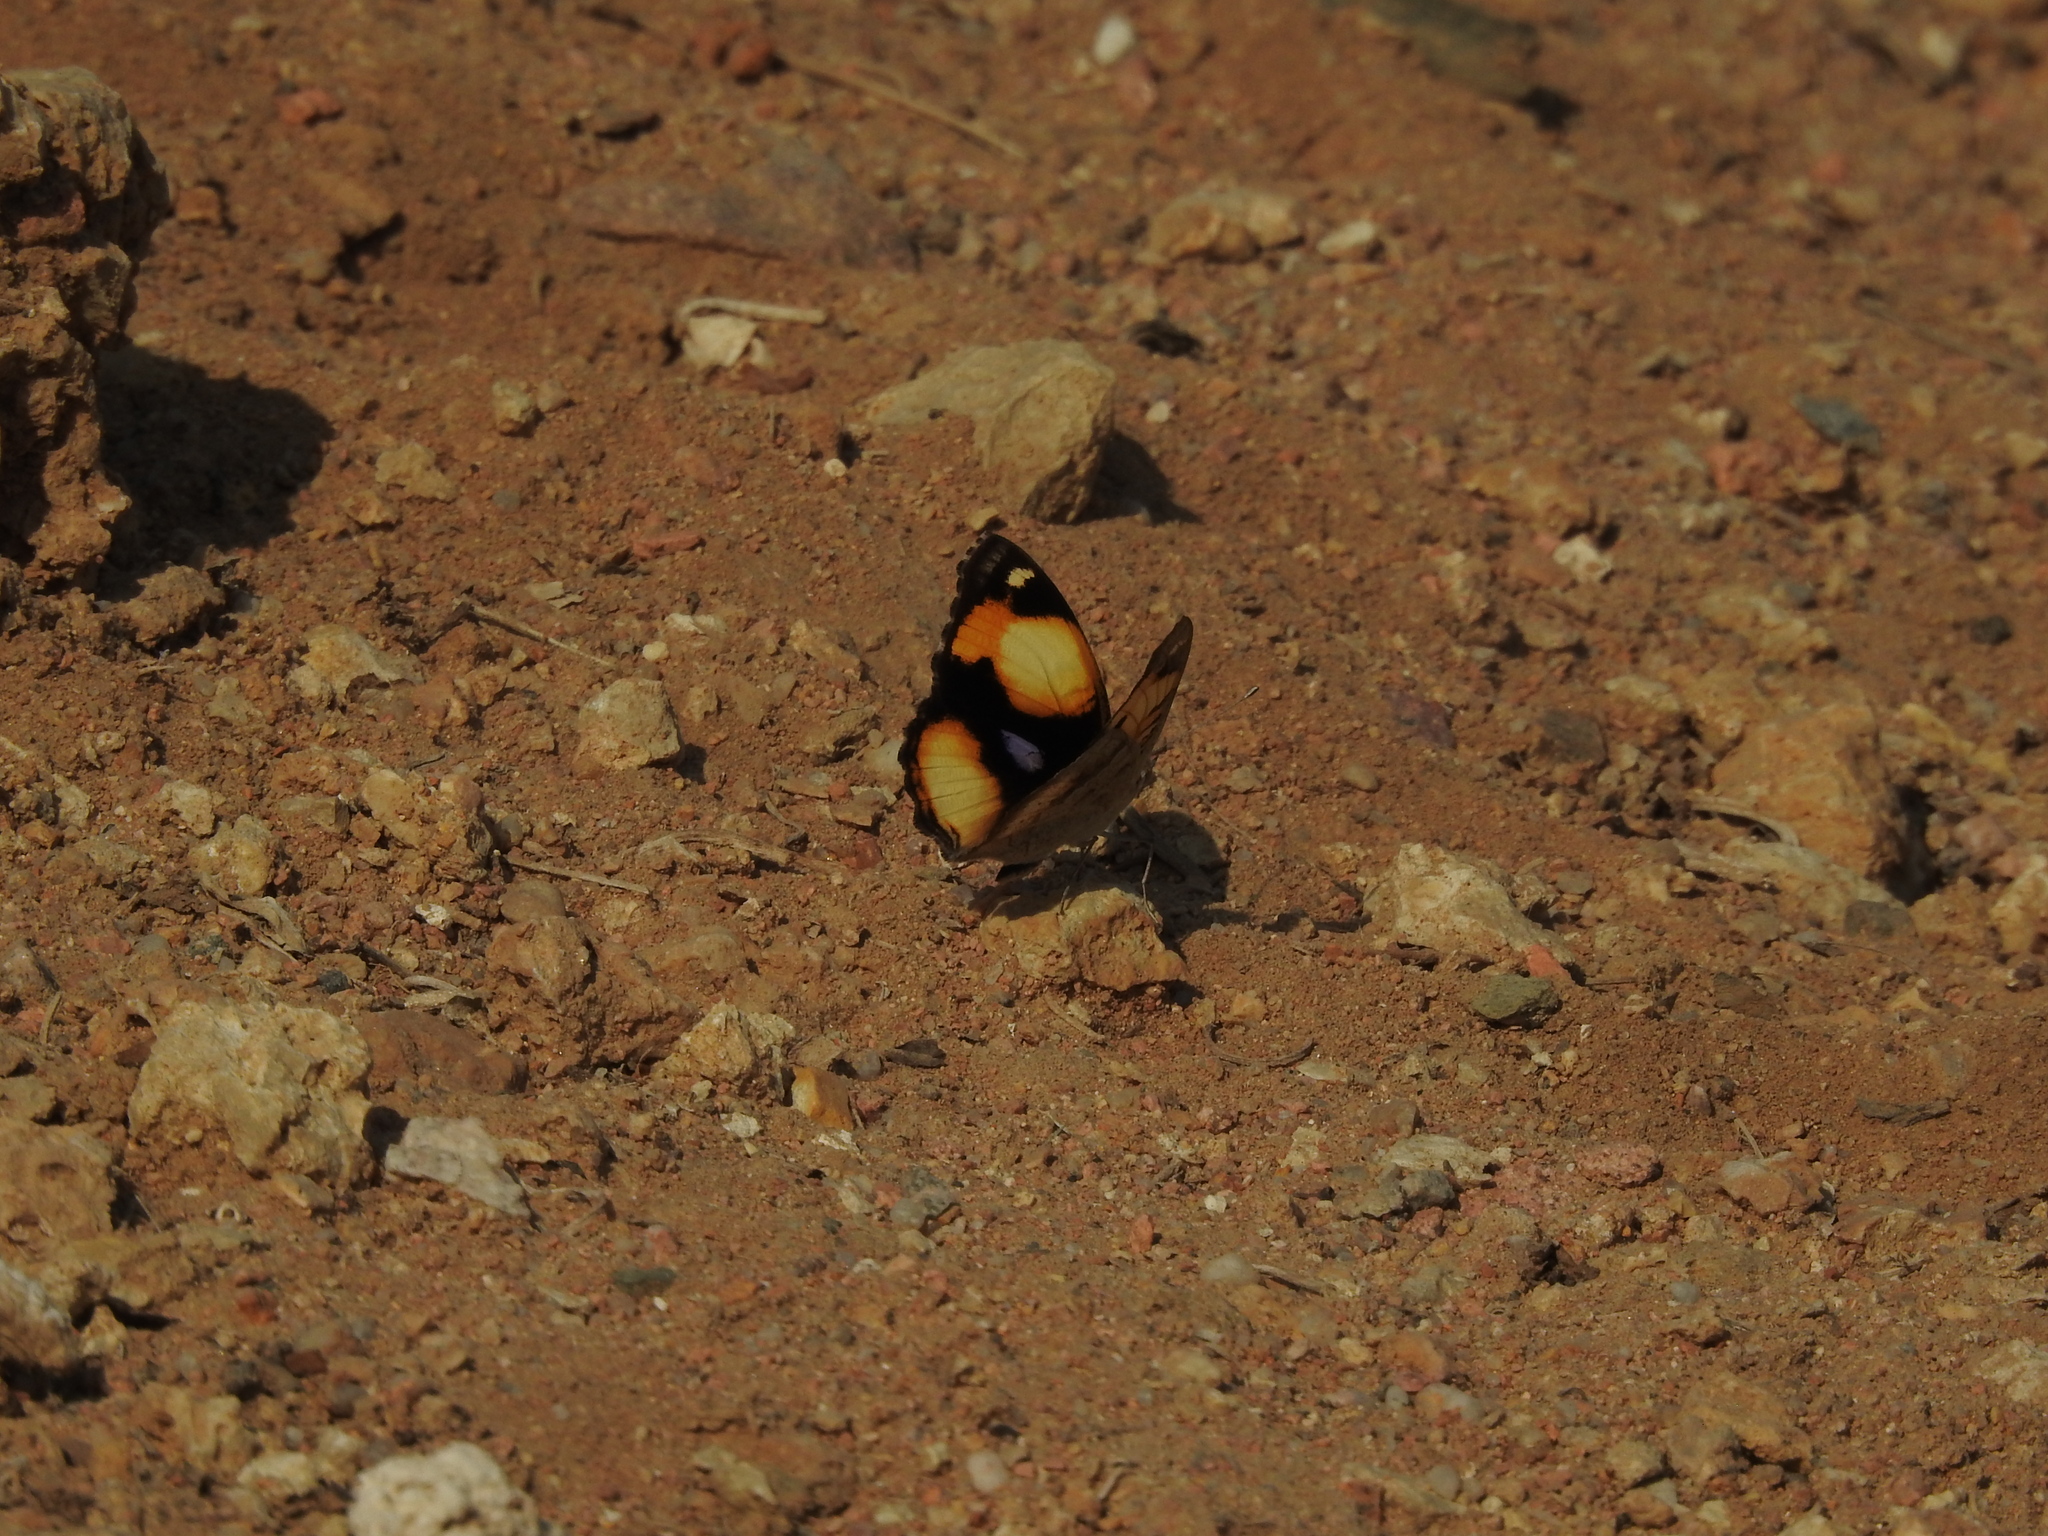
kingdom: Animalia
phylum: Arthropoda
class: Insecta
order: Lepidoptera
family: Nymphalidae
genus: Junonia
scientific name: Junonia hierta
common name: Yellow pansy
